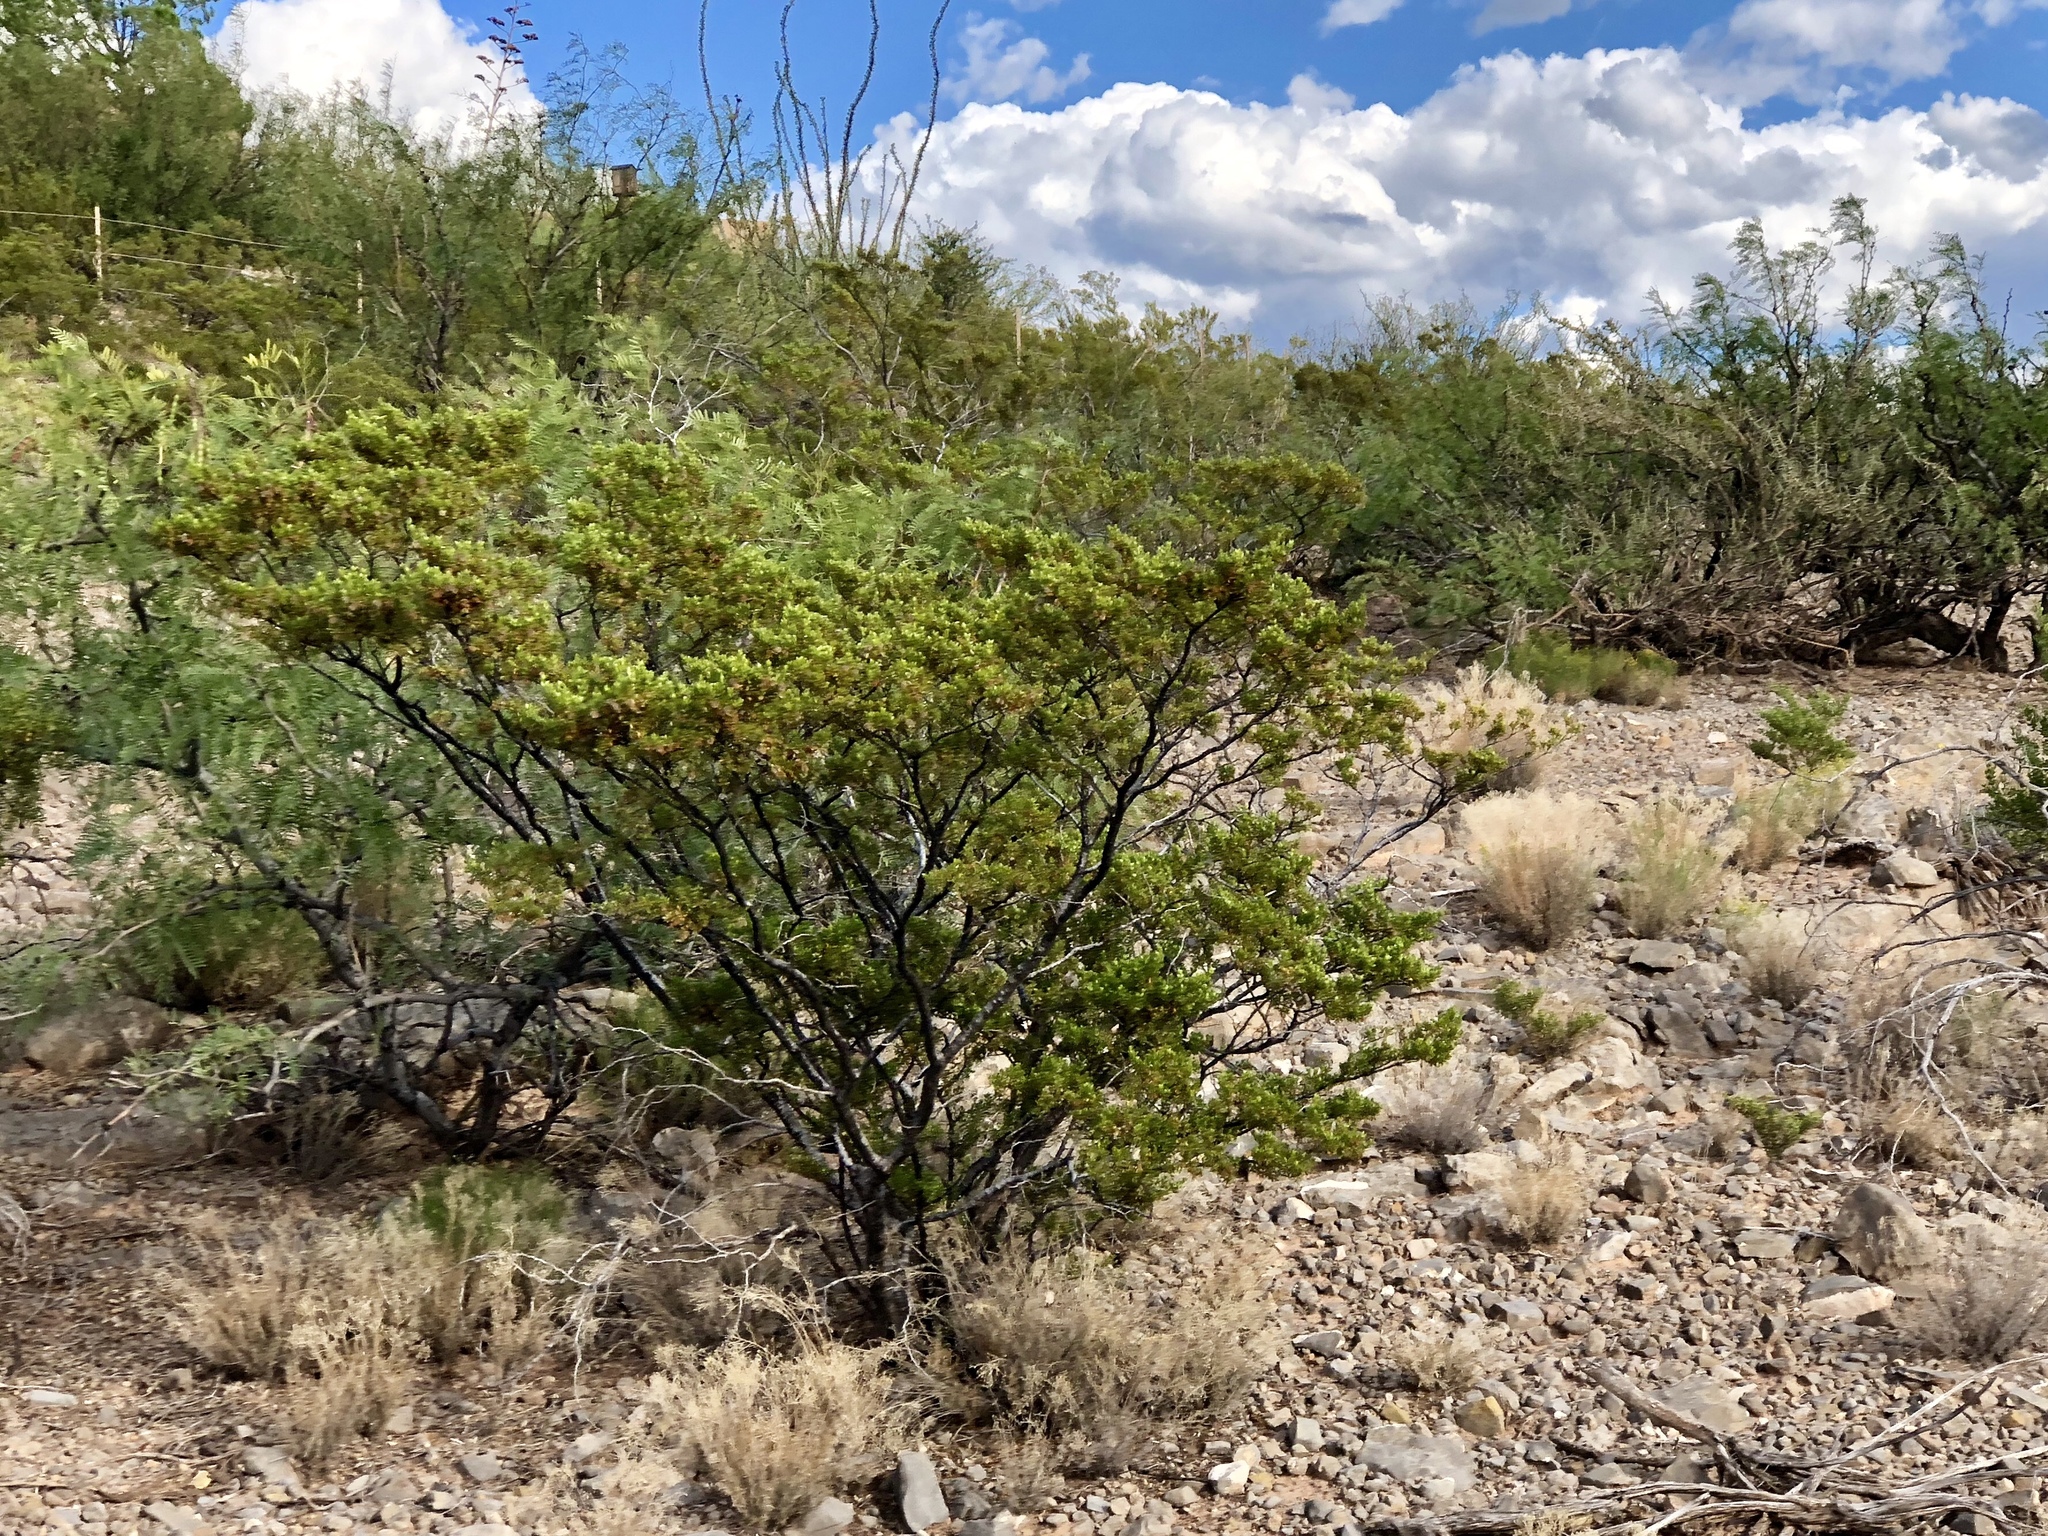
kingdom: Plantae
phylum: Tracheophyta
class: Magnoliopsida
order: Zygophyllales
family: Zygophyllaceae
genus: Larrea
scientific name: Larrea tridentata
